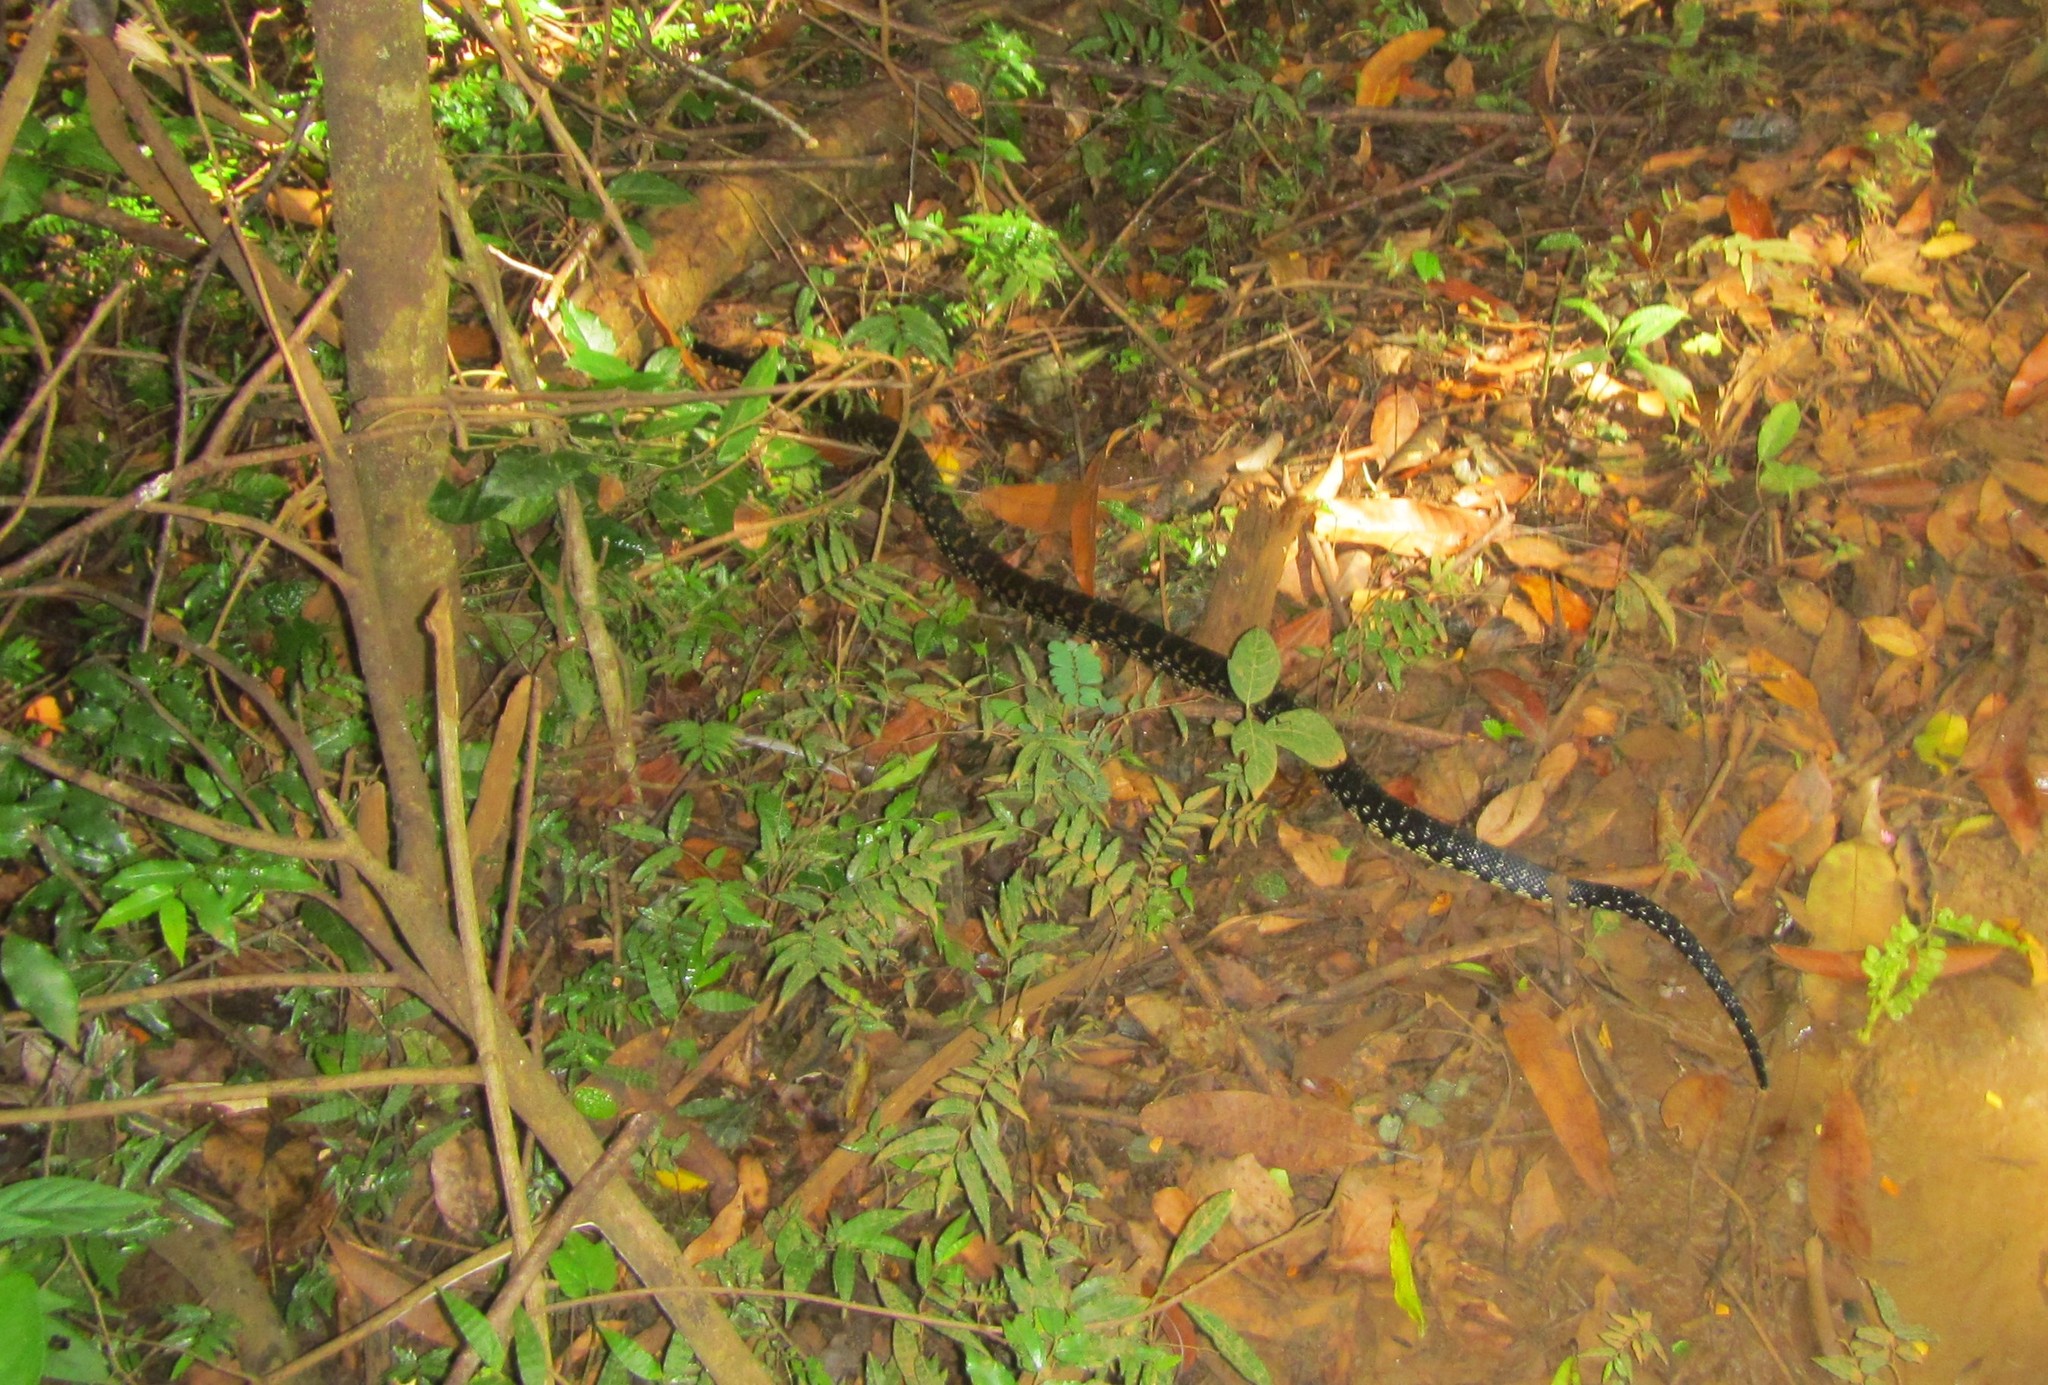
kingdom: Animalia
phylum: Chordata
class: Squamata
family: Pseudoxyrhophiidae
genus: Leioheterodon
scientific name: Leioheterodon madagascariensis
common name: Malagasy giant hognose snake
